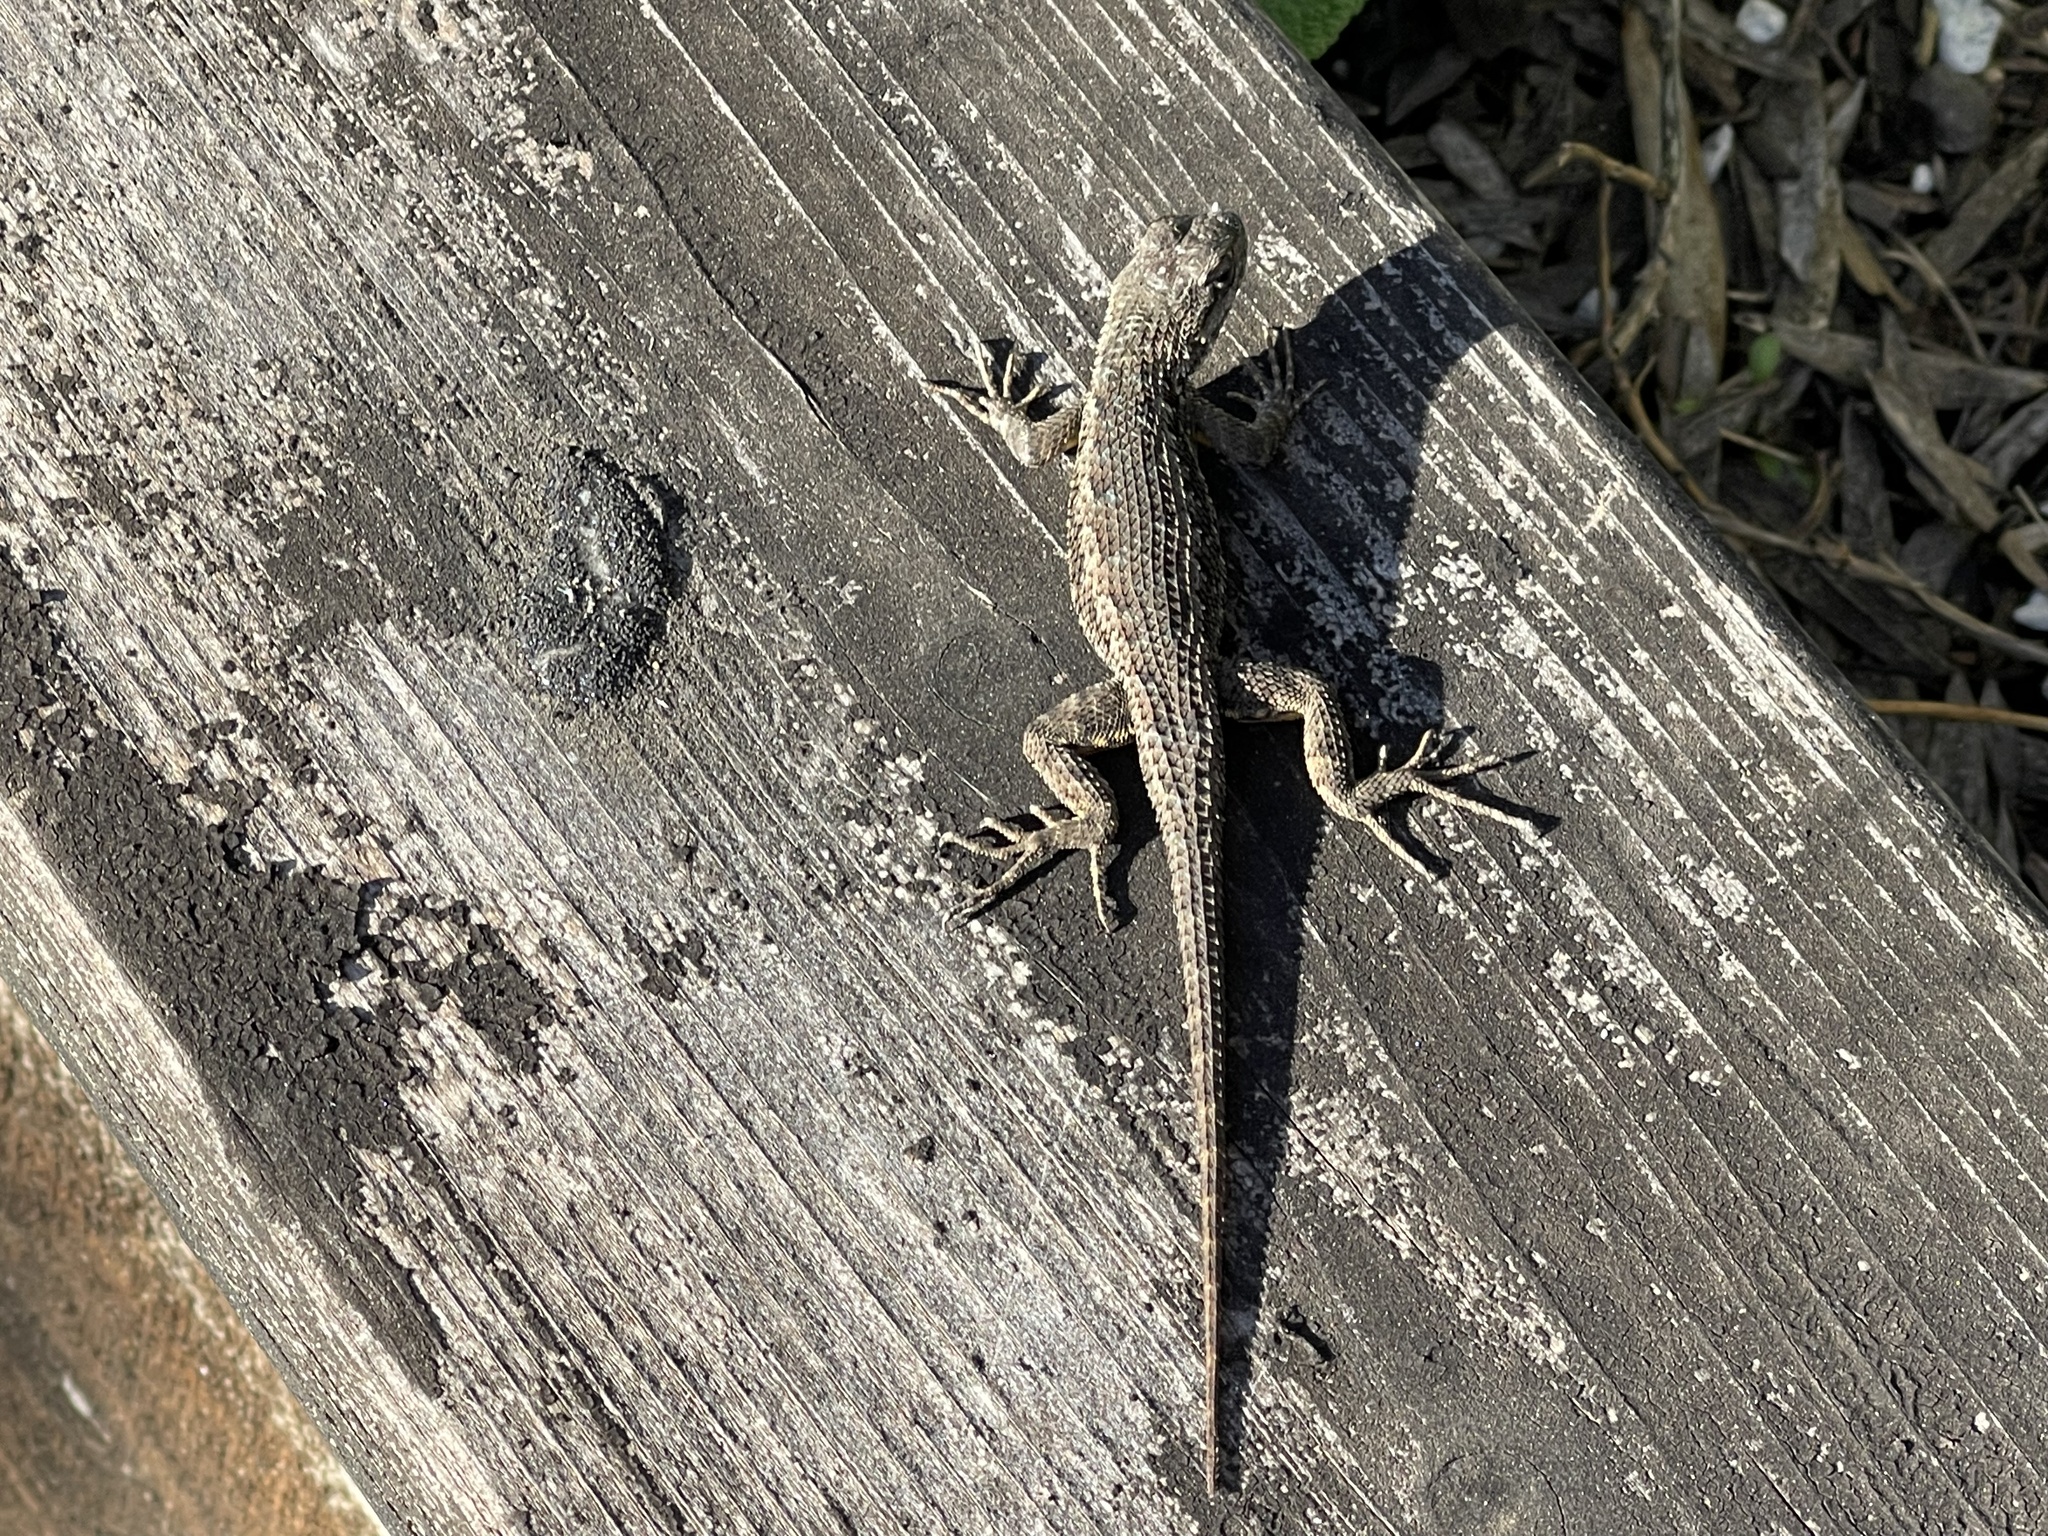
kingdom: Animalia
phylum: Chordata
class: Squamata
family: Phrynosomatidae
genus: Sceloporus
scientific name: Sceloporus occidentalis
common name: Western fence lizard
